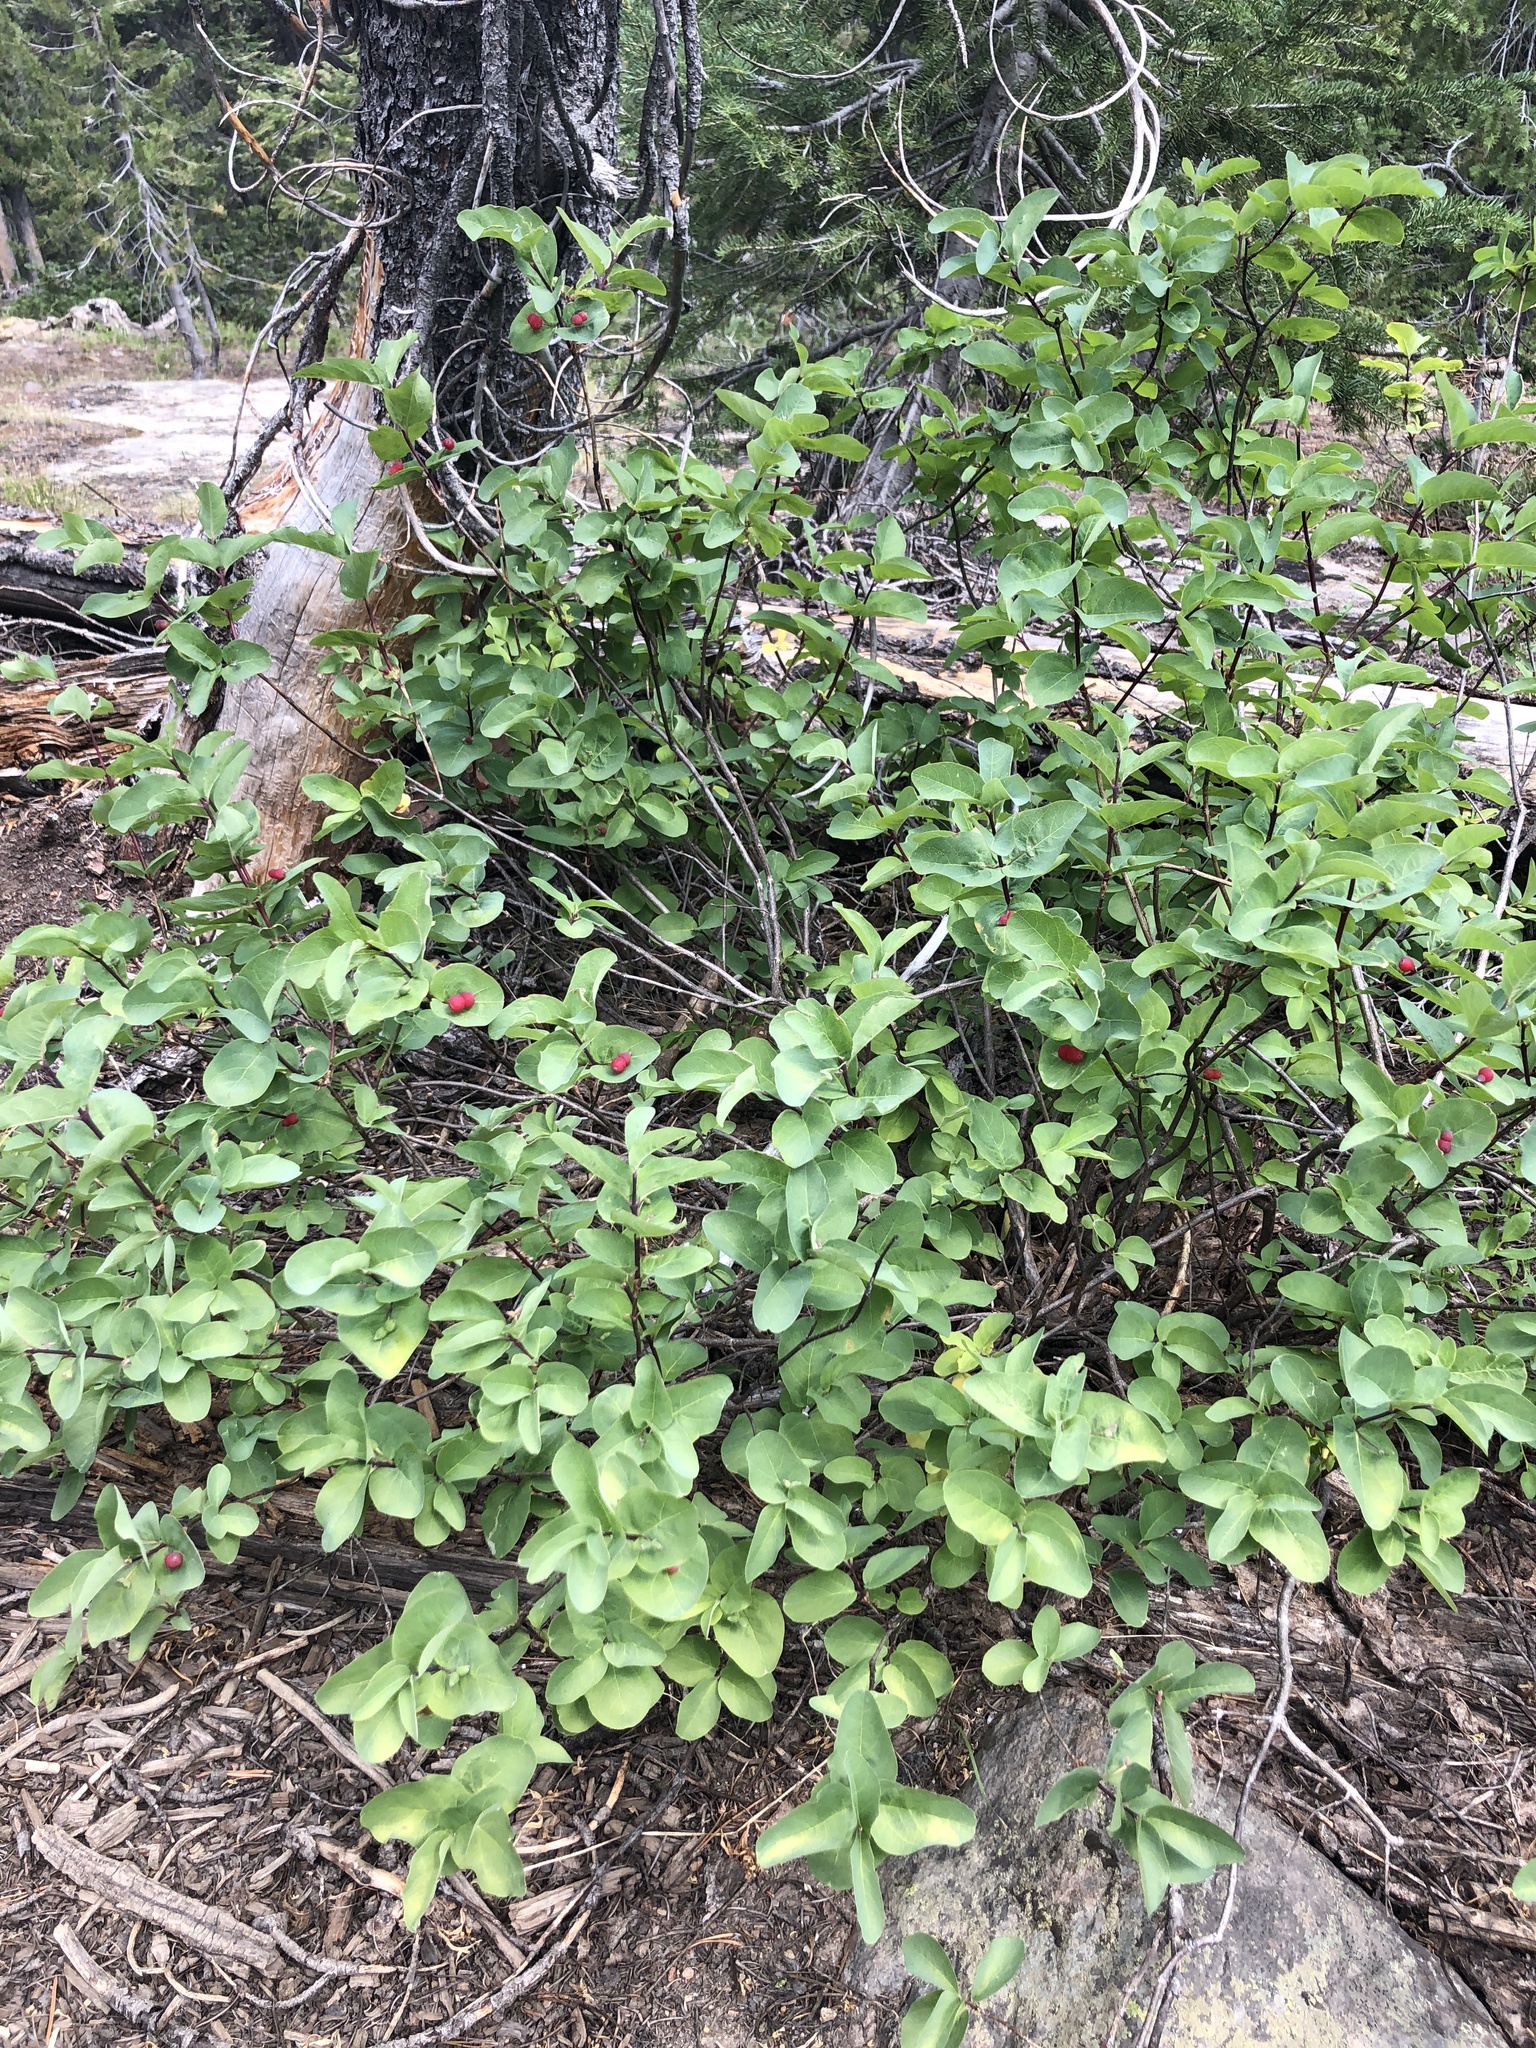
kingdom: Plantae
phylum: Tracheophyta
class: Magnoliopsida
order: Dipsacales
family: Caprifoliaceae
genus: Lonicera
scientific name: Lonicera utahensis
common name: Utah honeysuckle
